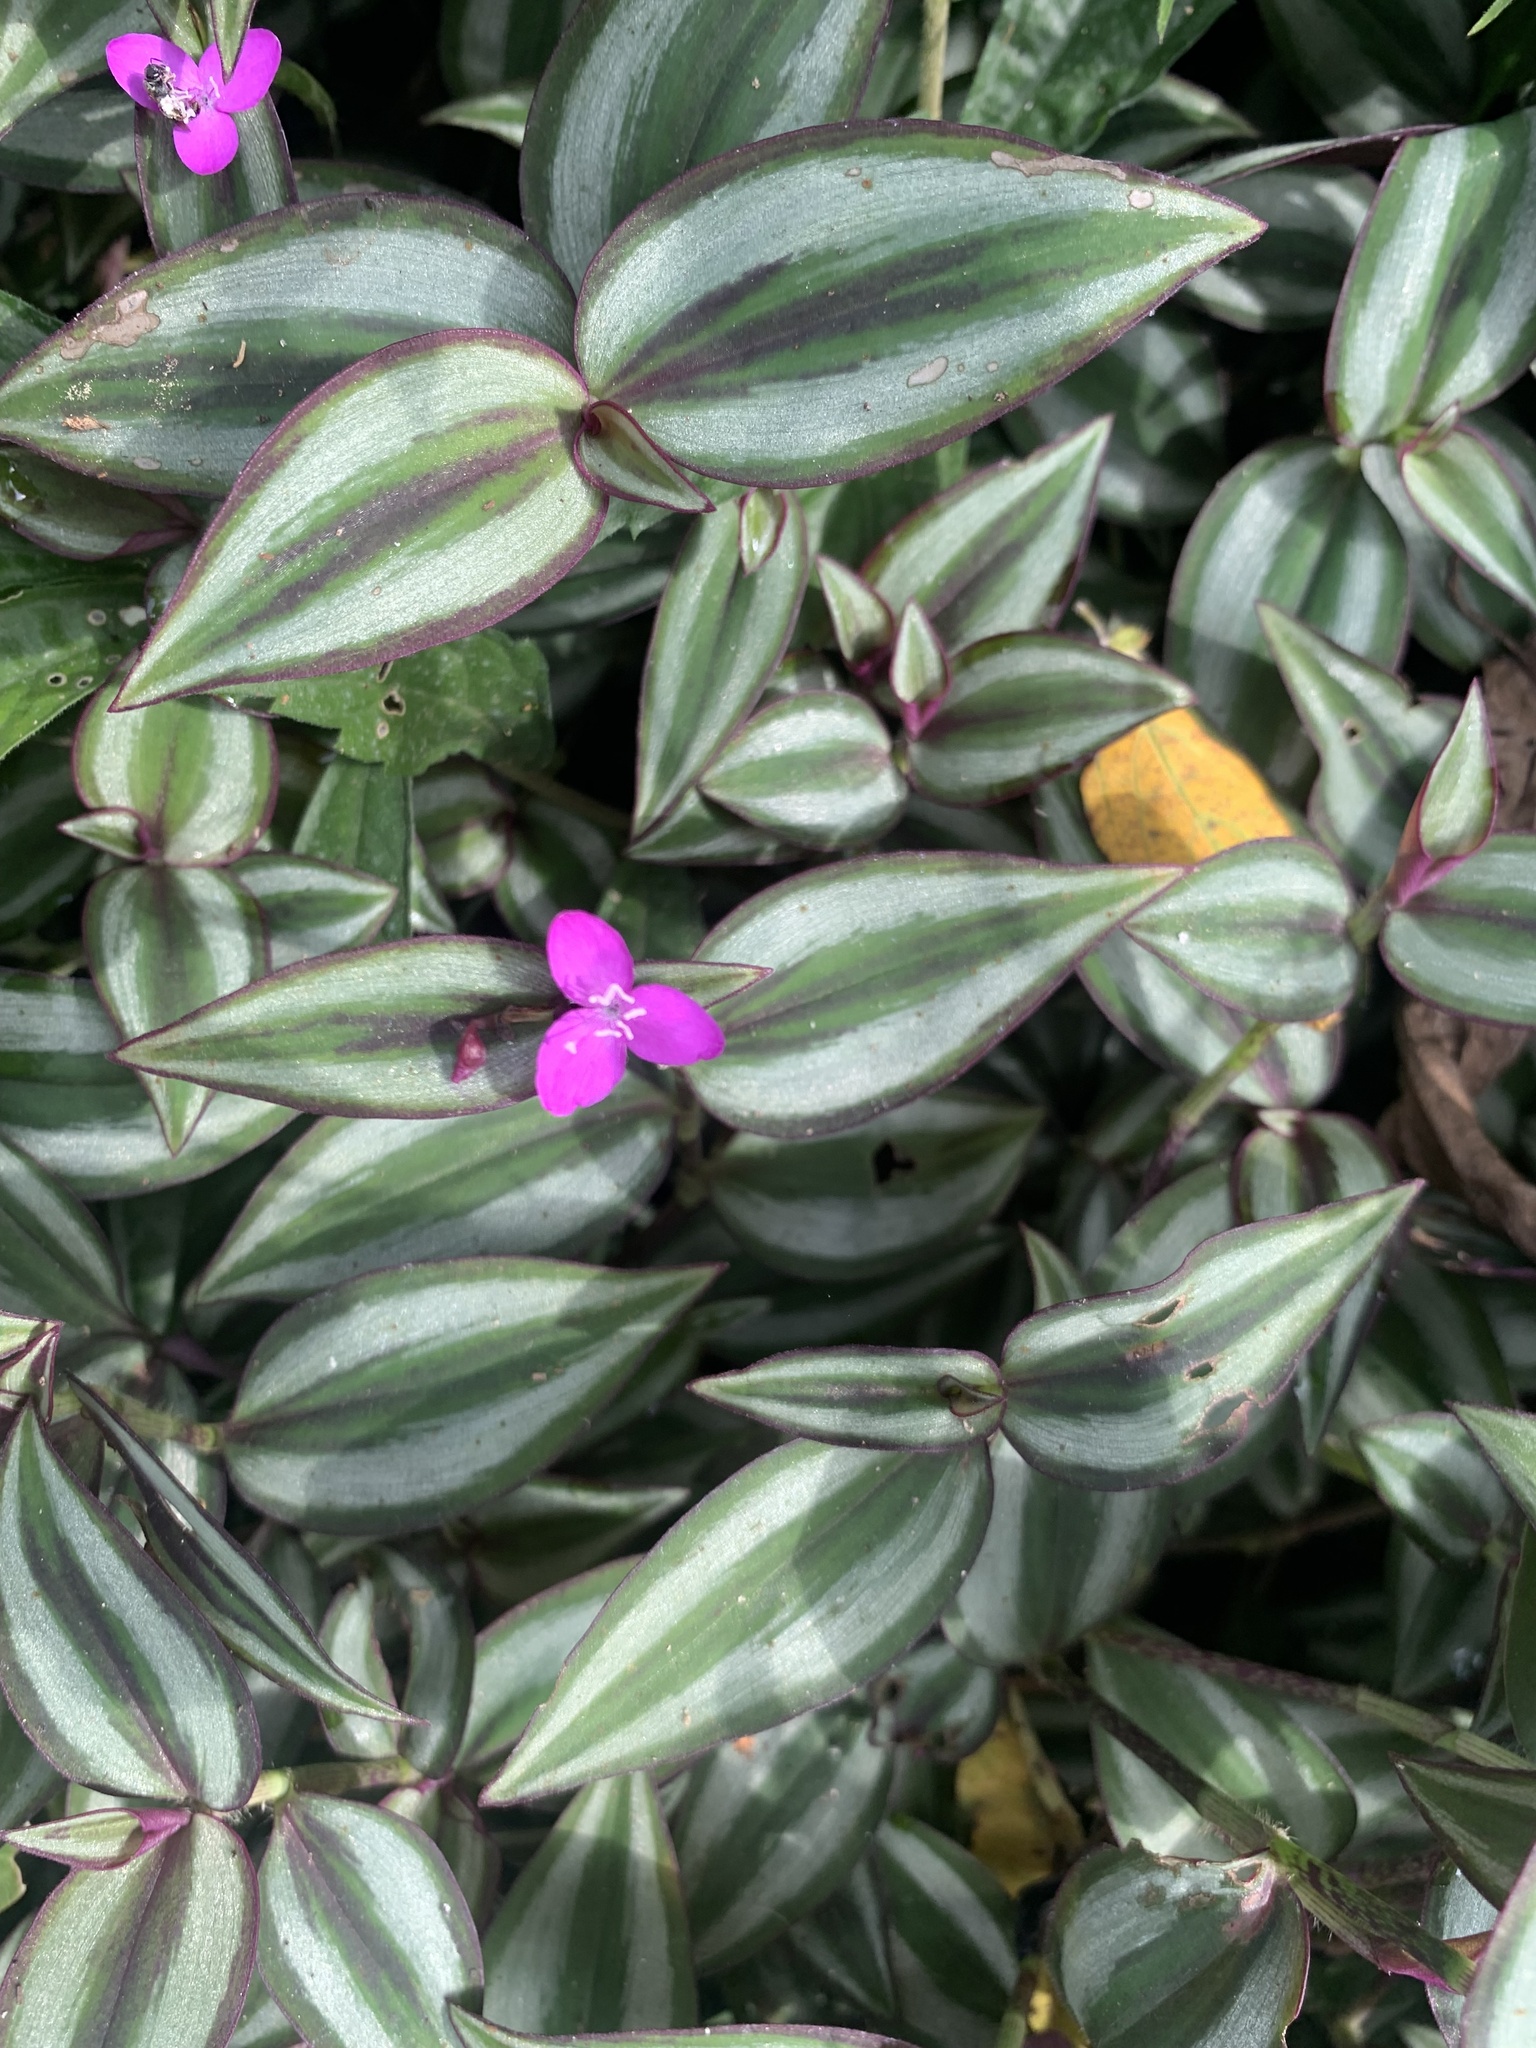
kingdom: Plantae
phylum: Tracheophyta
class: Liliopsida
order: Commelinales
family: Commelinaceae
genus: Tradescantia
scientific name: Tradescantia zebrina
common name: Inchplant
